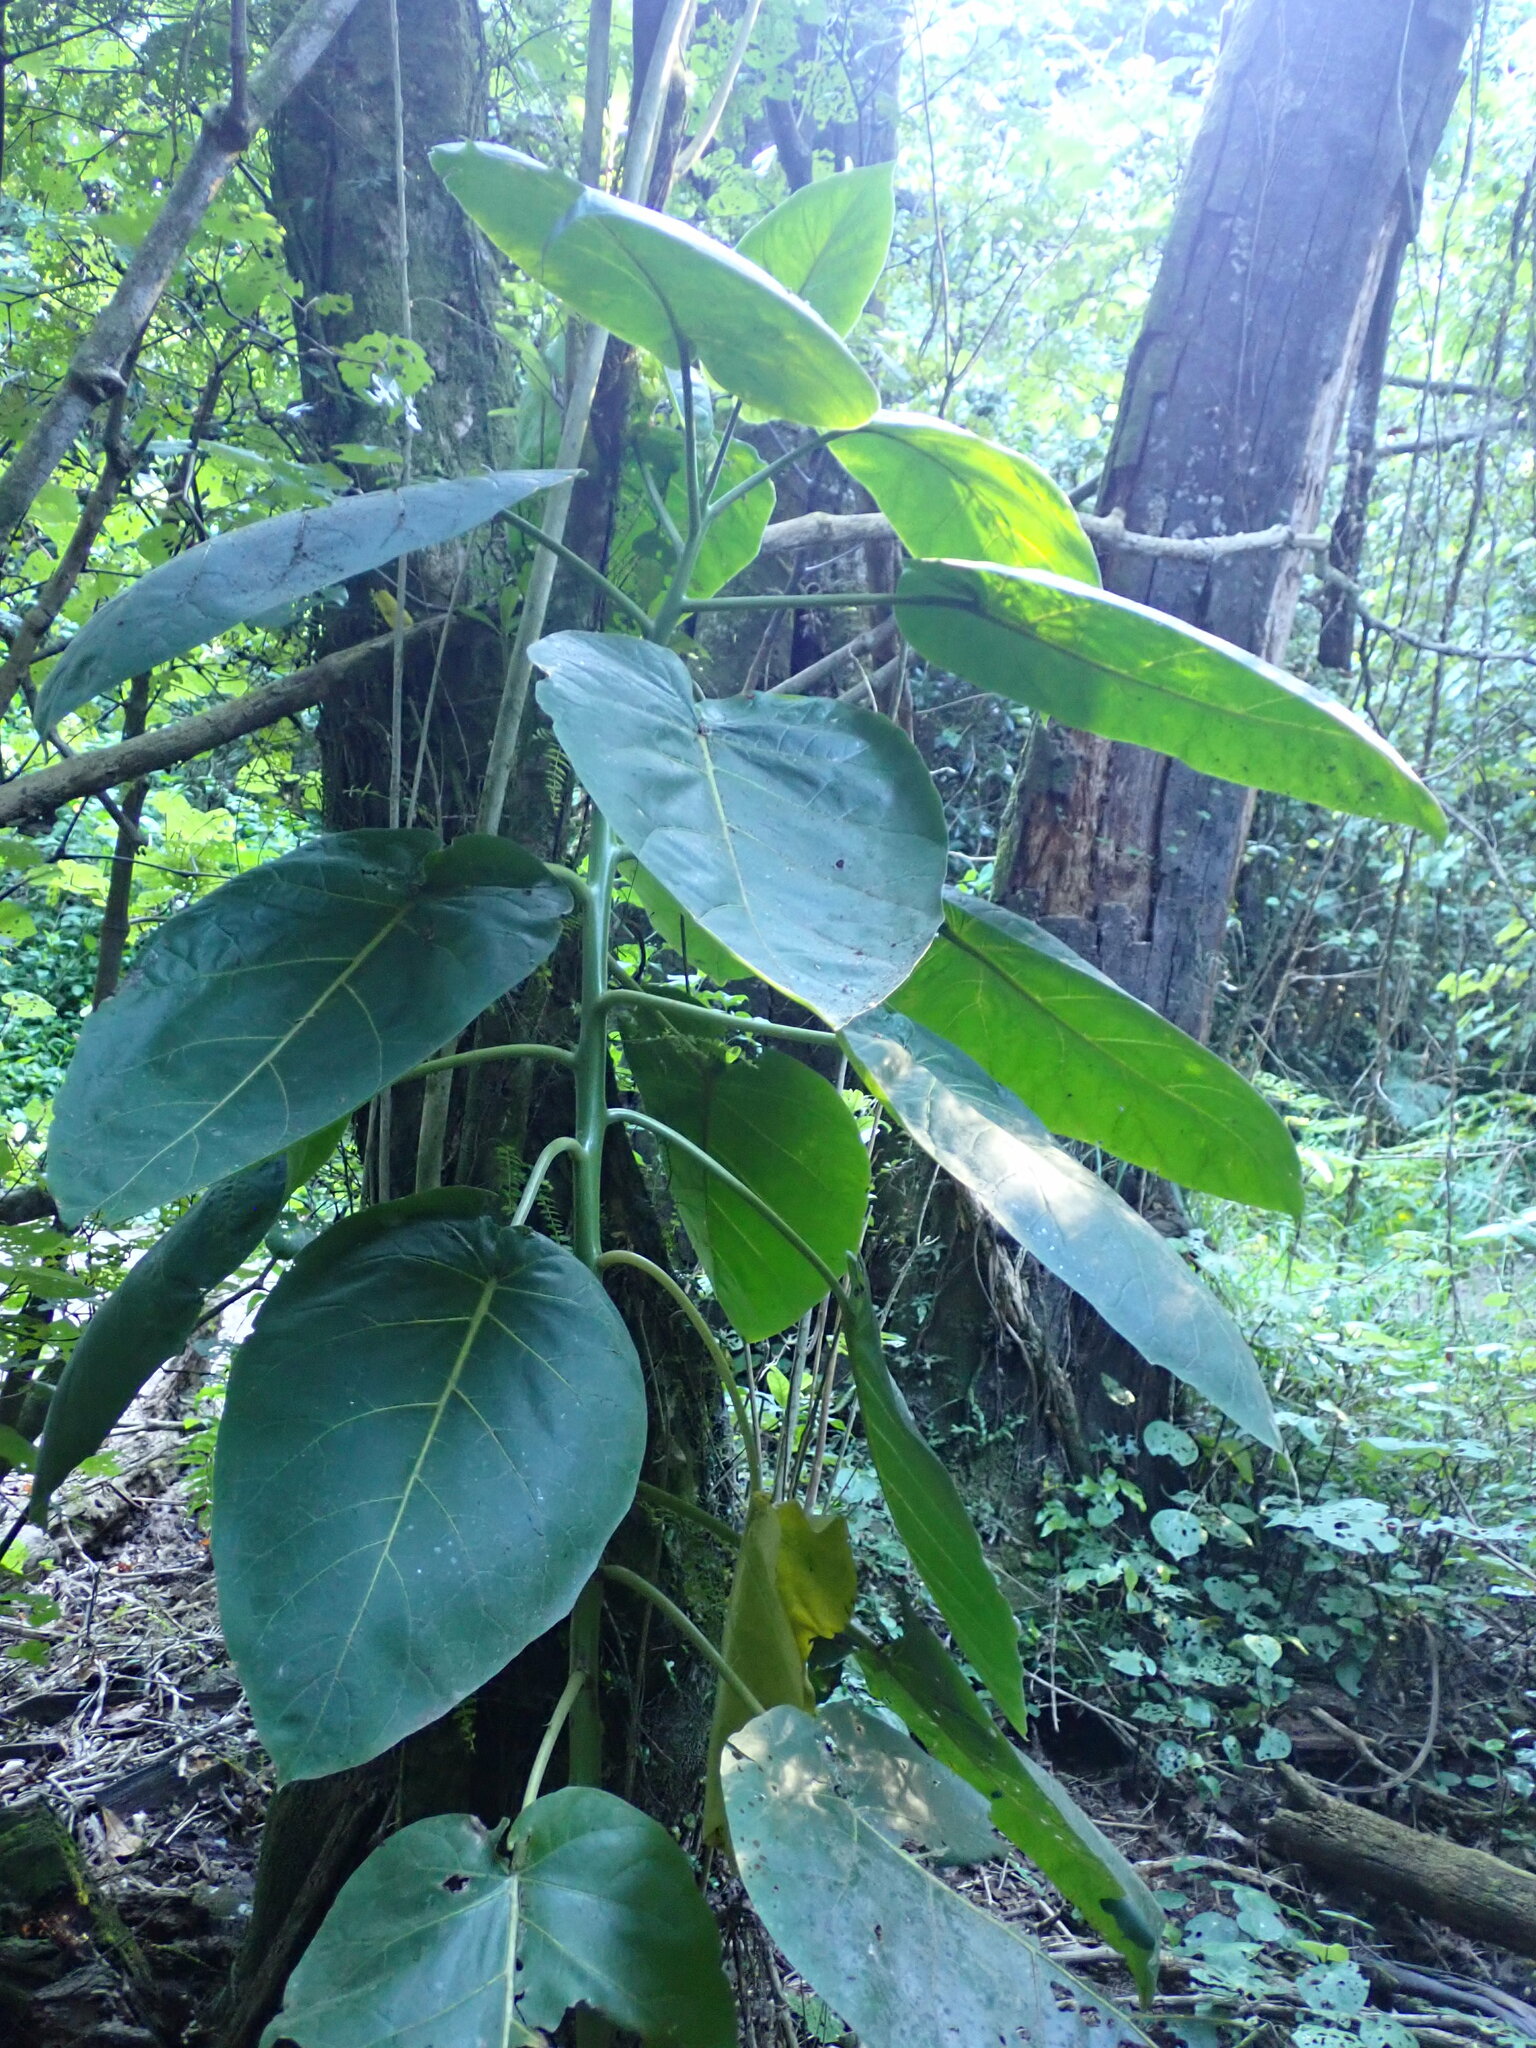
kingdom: Plantae
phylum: Tracheophyta
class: Magnoliopsida
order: Solanales
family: Solanaceae
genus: Solanum
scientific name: Solanum betaceum
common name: Tamarillo
